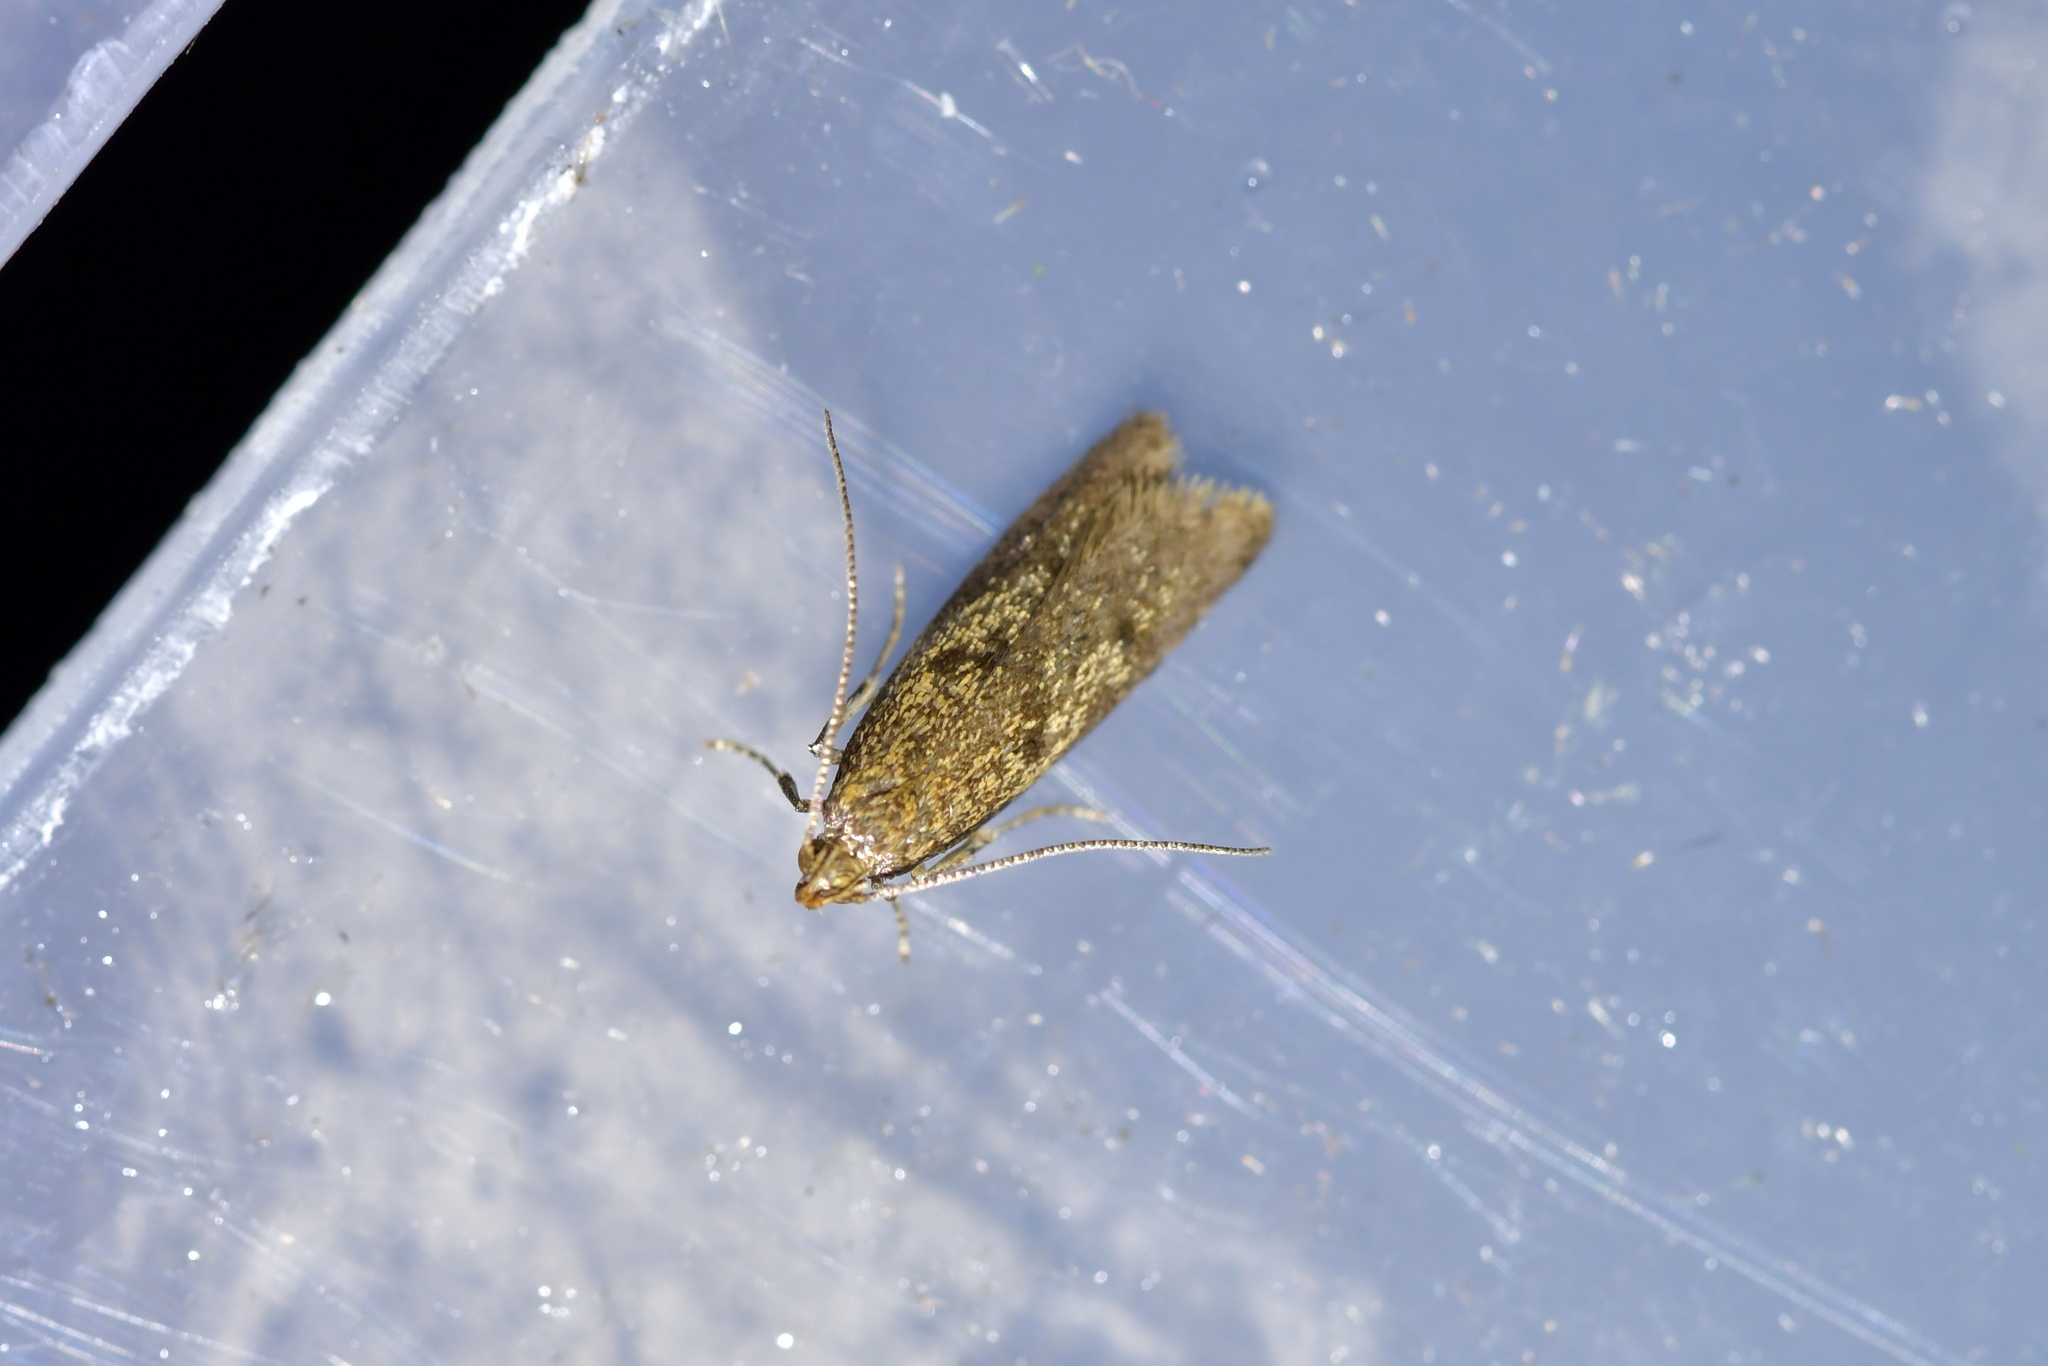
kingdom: Animalia
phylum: Arthropoda
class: Insecta
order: Lepidoptera
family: Oecophoridae
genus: Gymnobathra
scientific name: Gymnobathra tholodella
